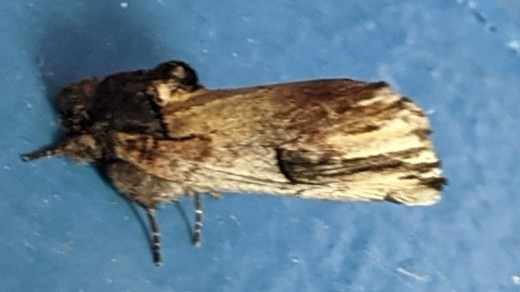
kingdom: Animalia
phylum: Arthropoda
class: Insecta
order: Lepidoptera
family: Notodontidae
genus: Schizura
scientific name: Schizura badia
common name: Chestnut schizura
